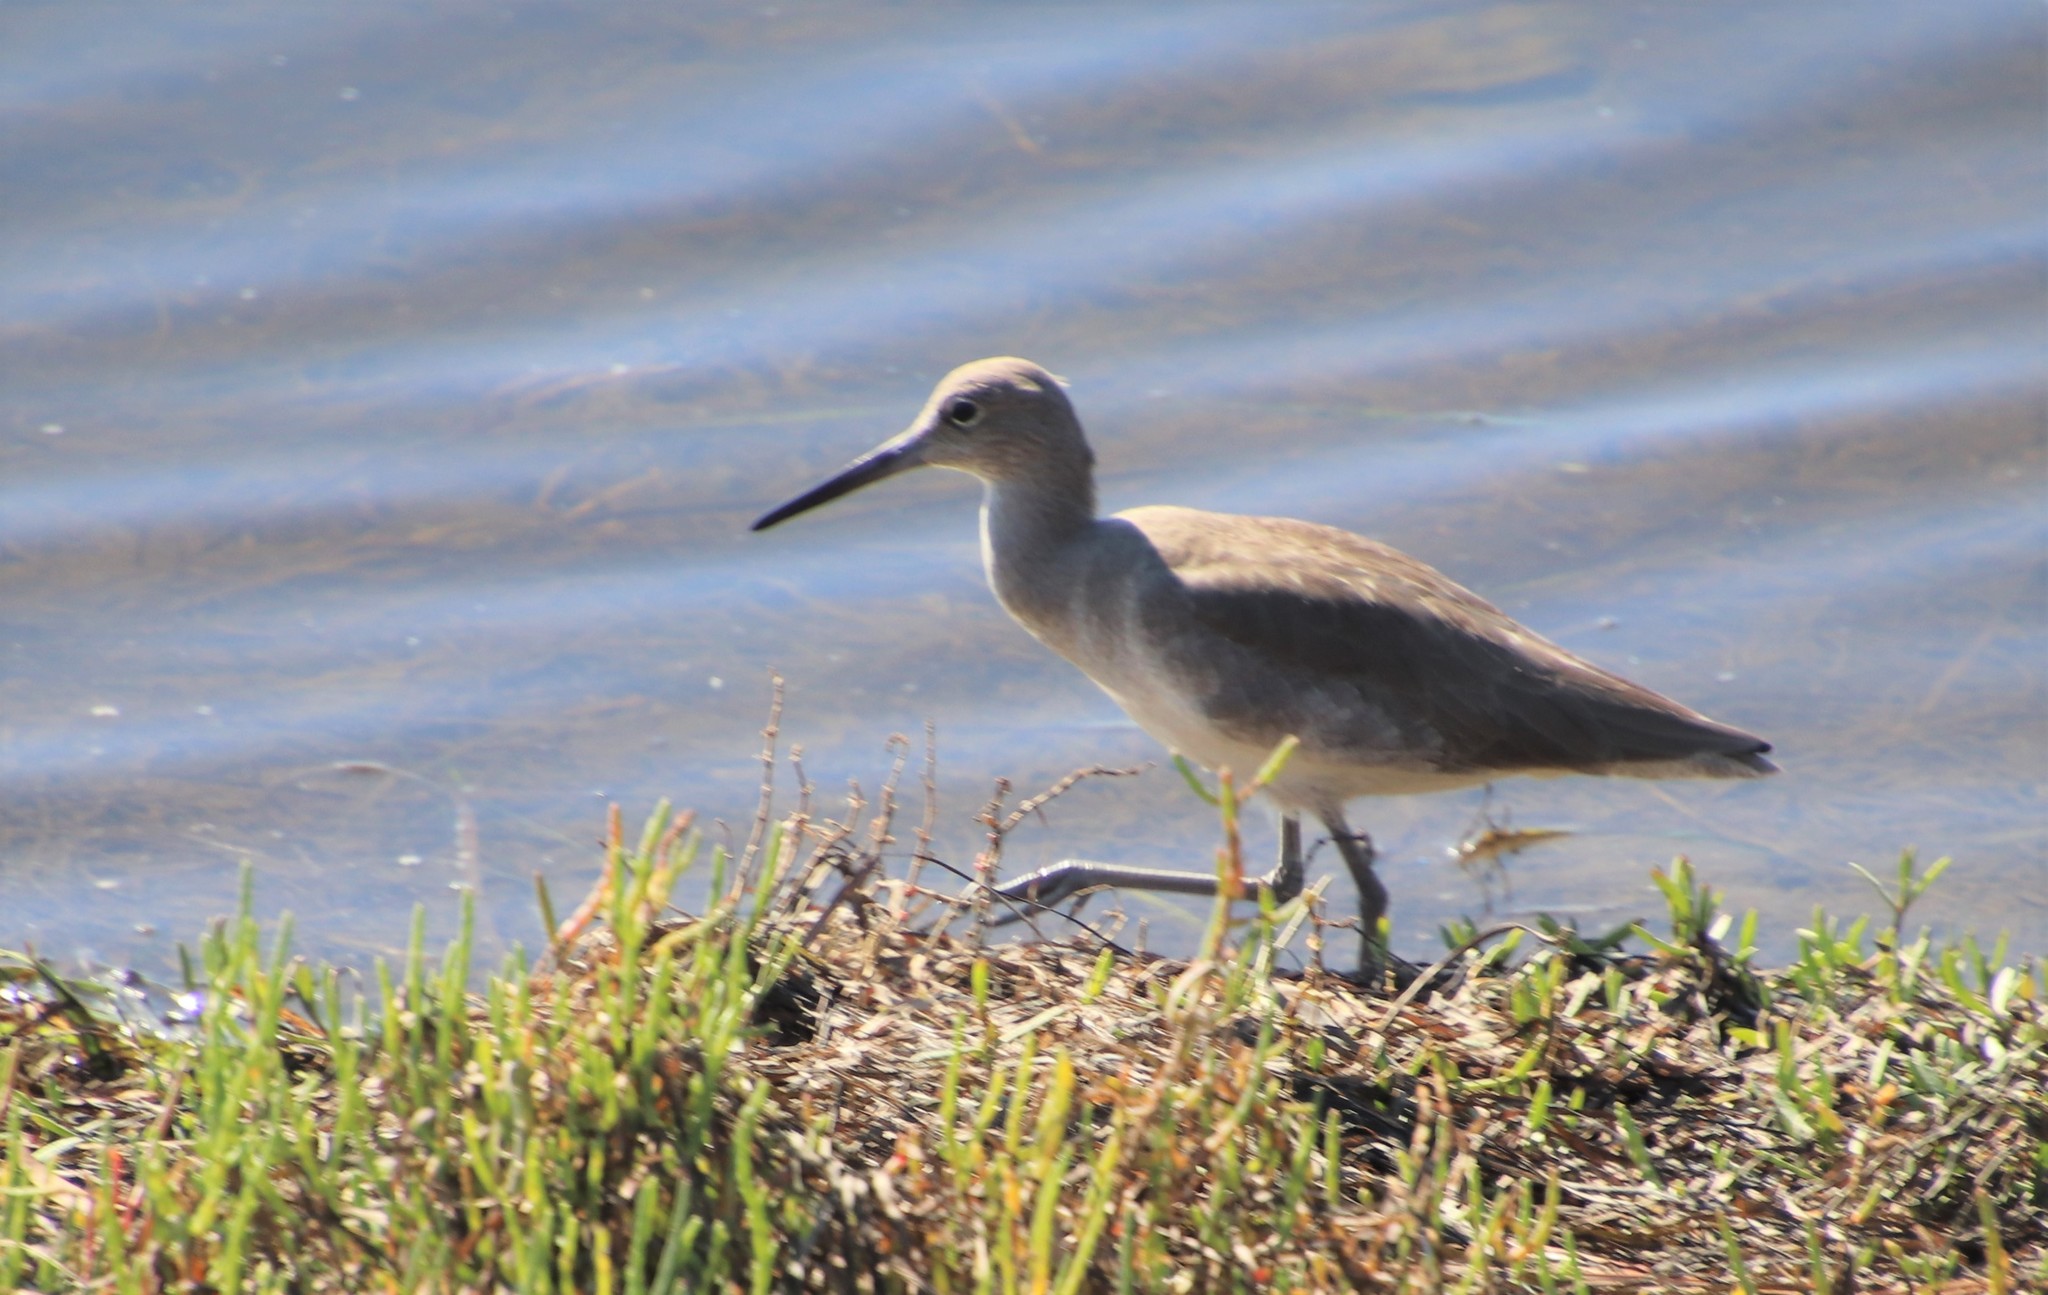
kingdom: Animalia
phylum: Chordata
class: Aves
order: Charadriiformes
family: Scolopacidae
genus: Tringa
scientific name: Tringa semipalmata
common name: Willet
